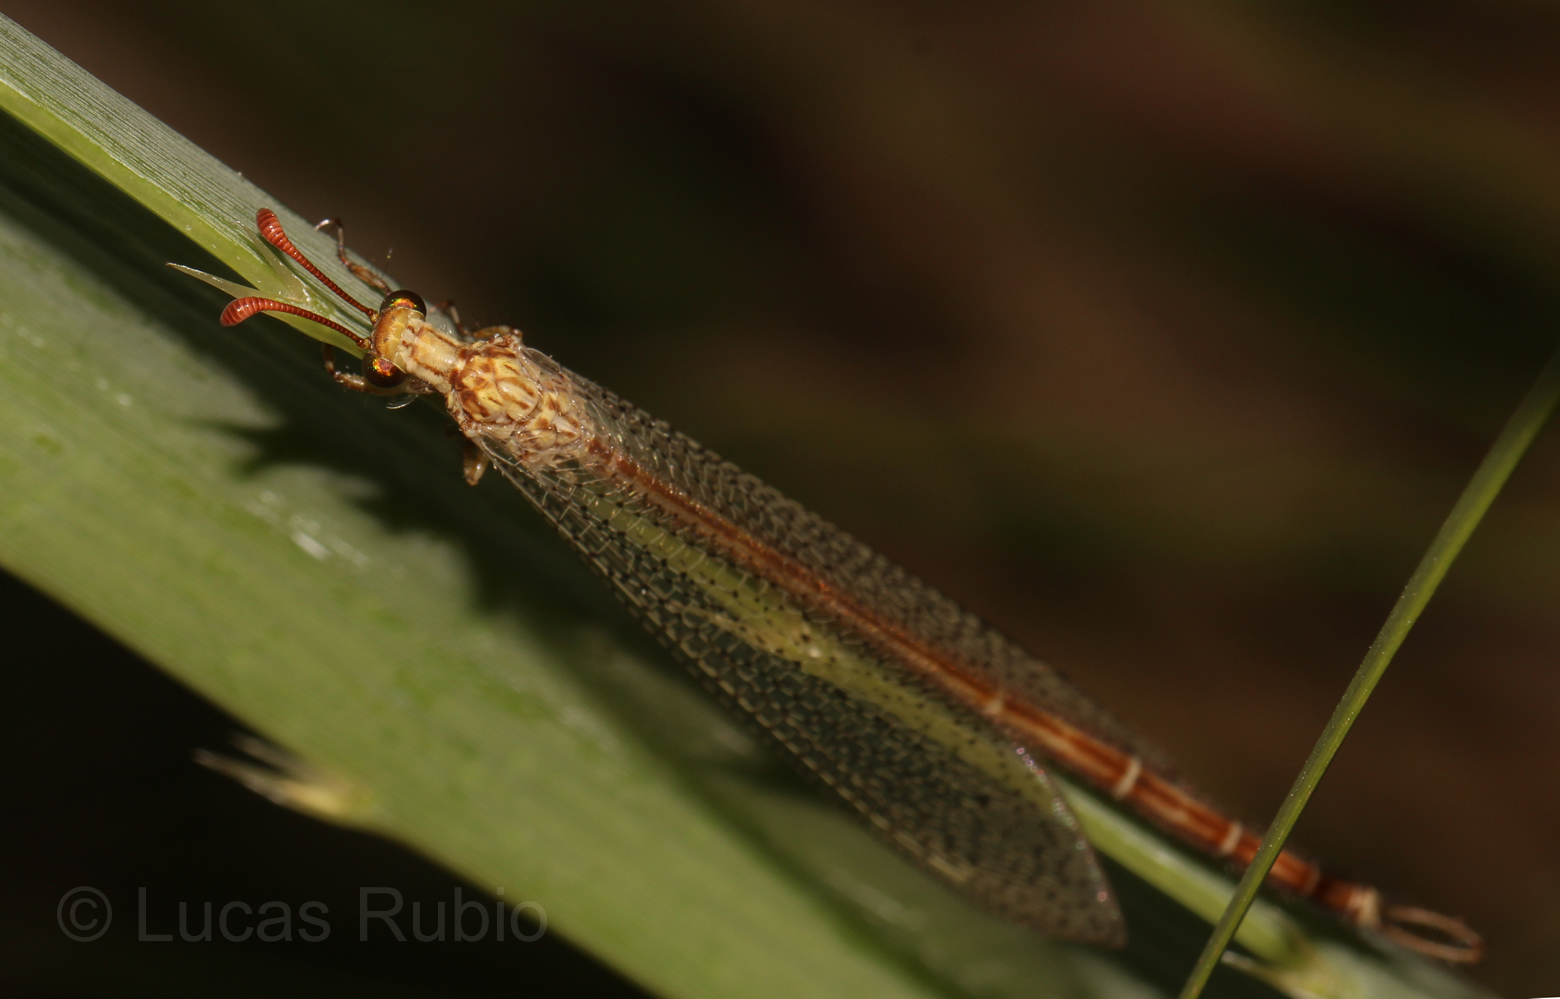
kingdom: Animalia
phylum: Arthropoda
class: Insecta
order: Neuroptera
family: Myrmeleontidae
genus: Argentoleon
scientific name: Argentoleon irrigatus
